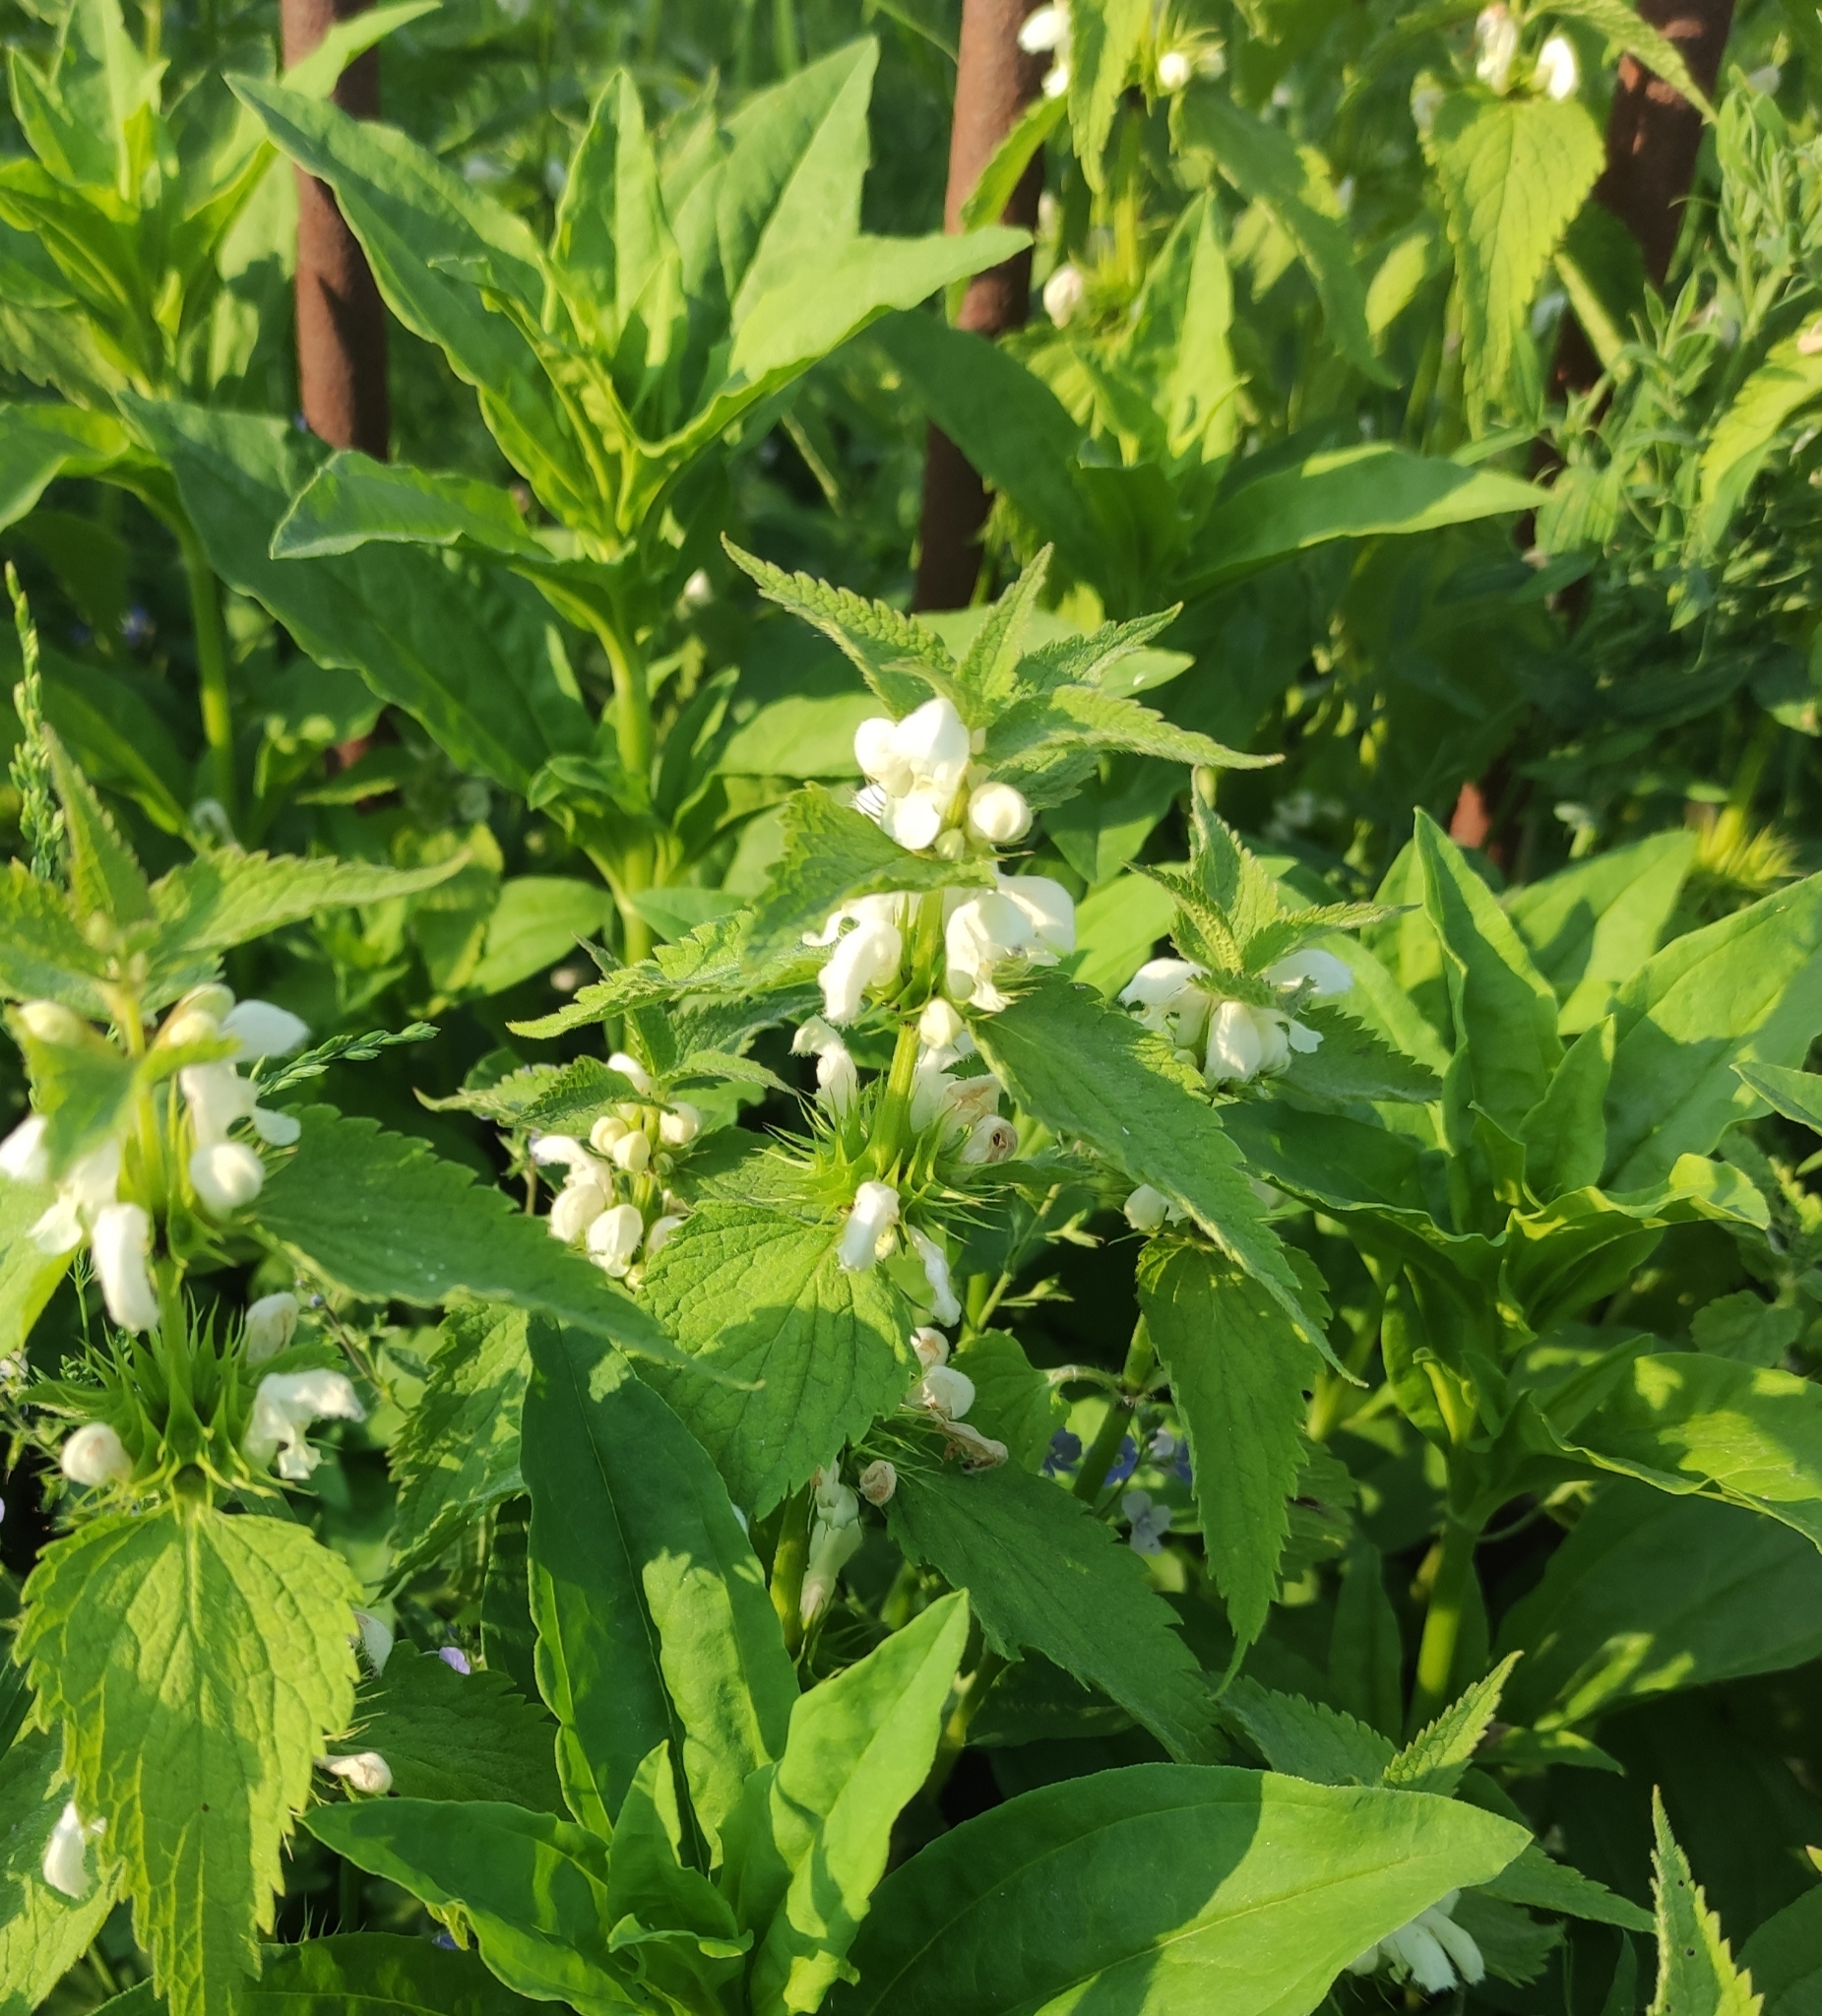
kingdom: Plantae
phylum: Tracheophyta
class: Magnoliopsida
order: Lamiales
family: Lamiaceae
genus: Lamium
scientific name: Lamium album
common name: White dead-nettle
